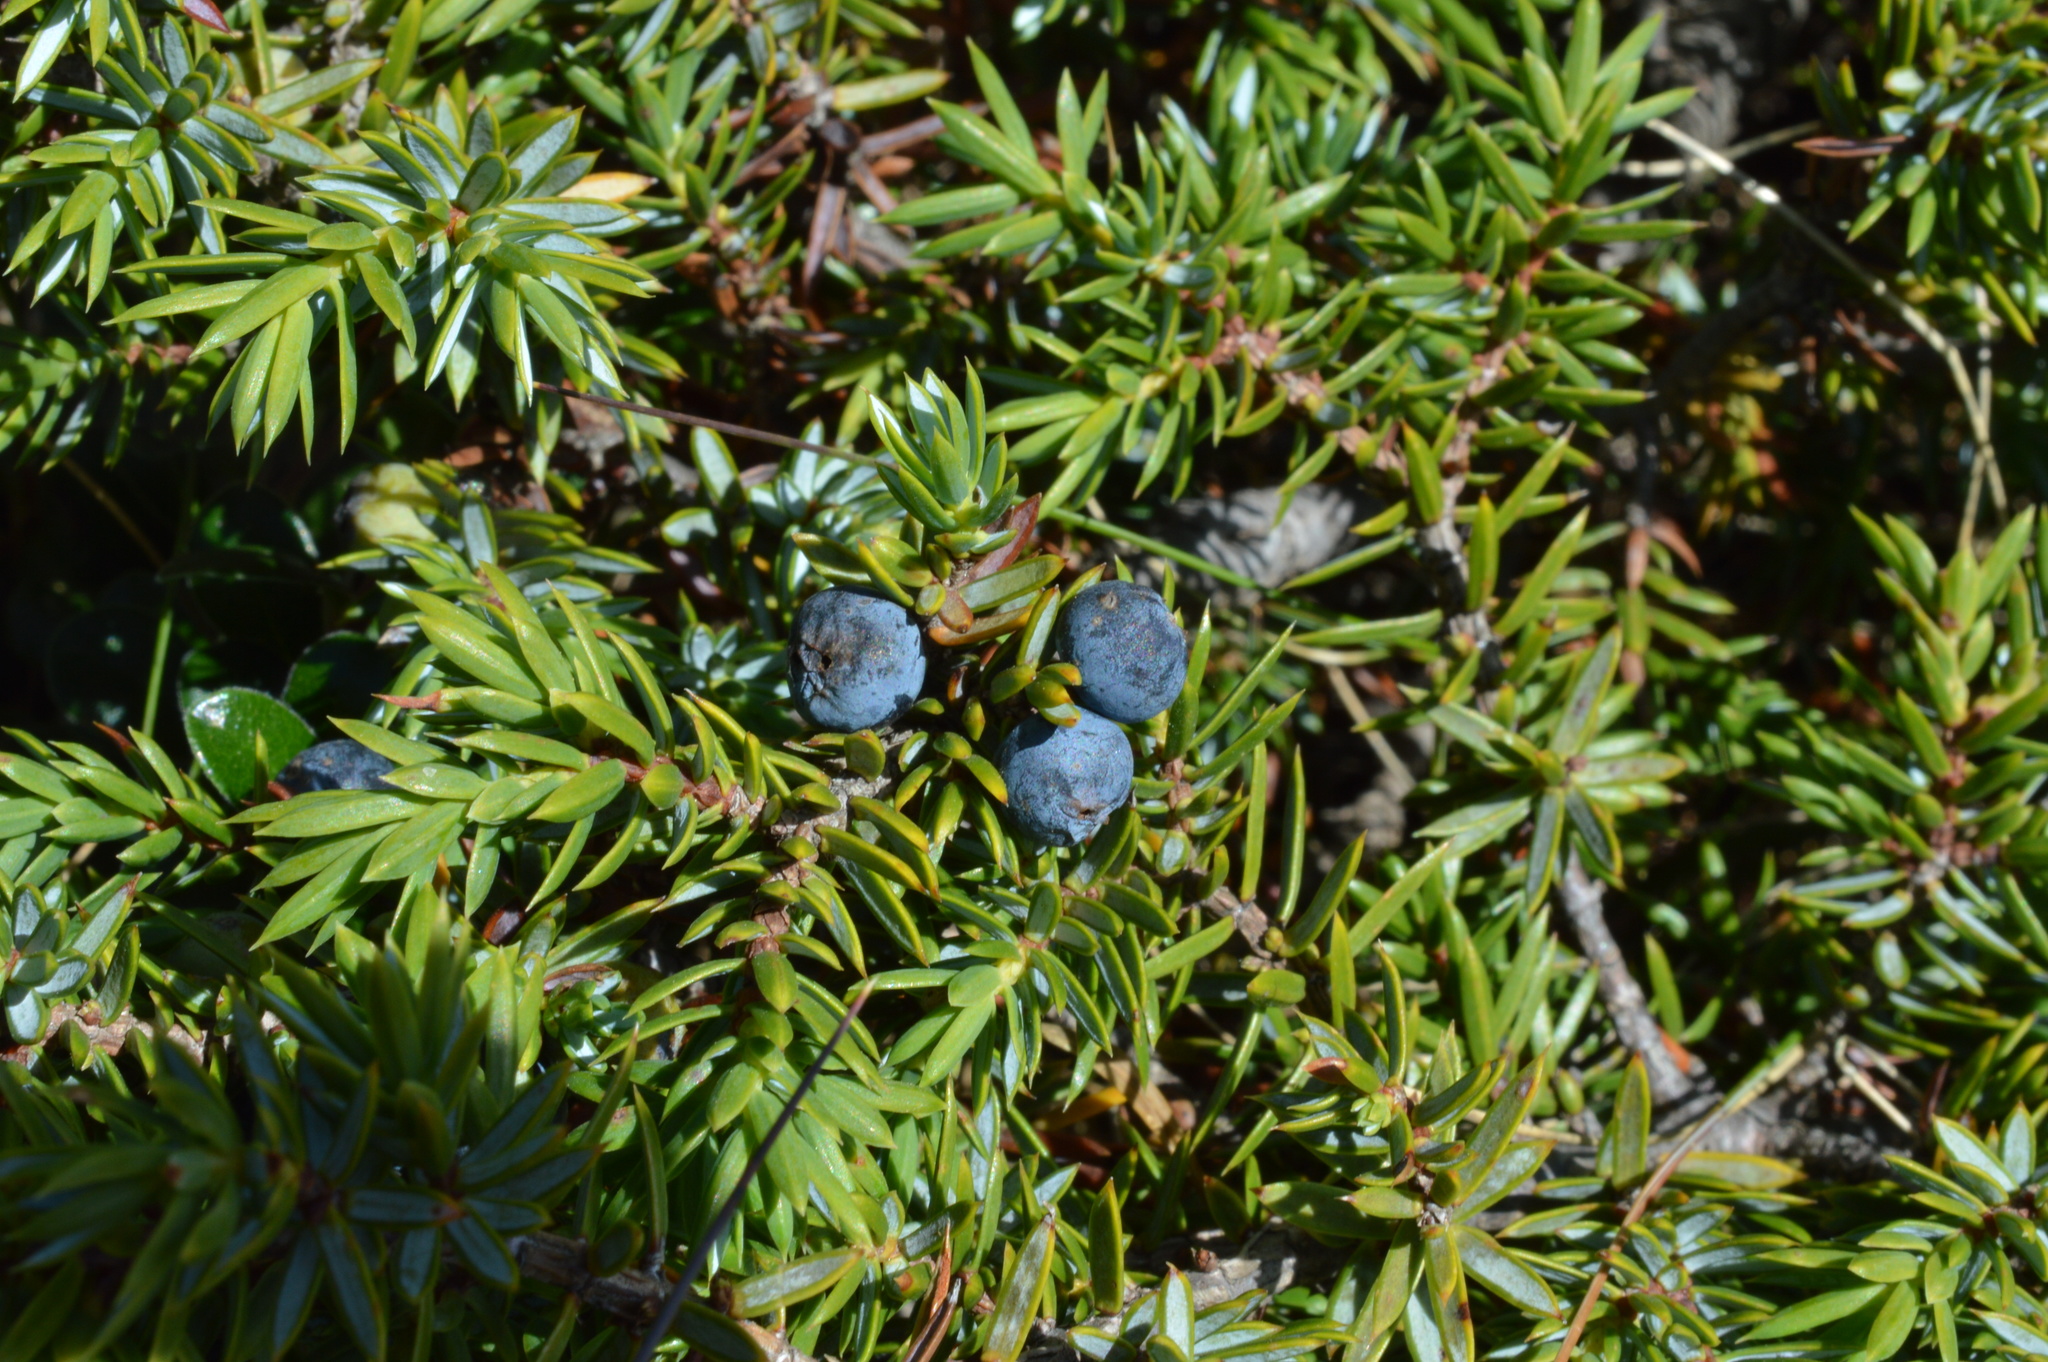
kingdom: Plantae
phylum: Tracheophyta
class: Pinopsida
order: Pinales
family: Cupressaceae
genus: Juniperus
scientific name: Juniperus communis
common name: Common juniper
